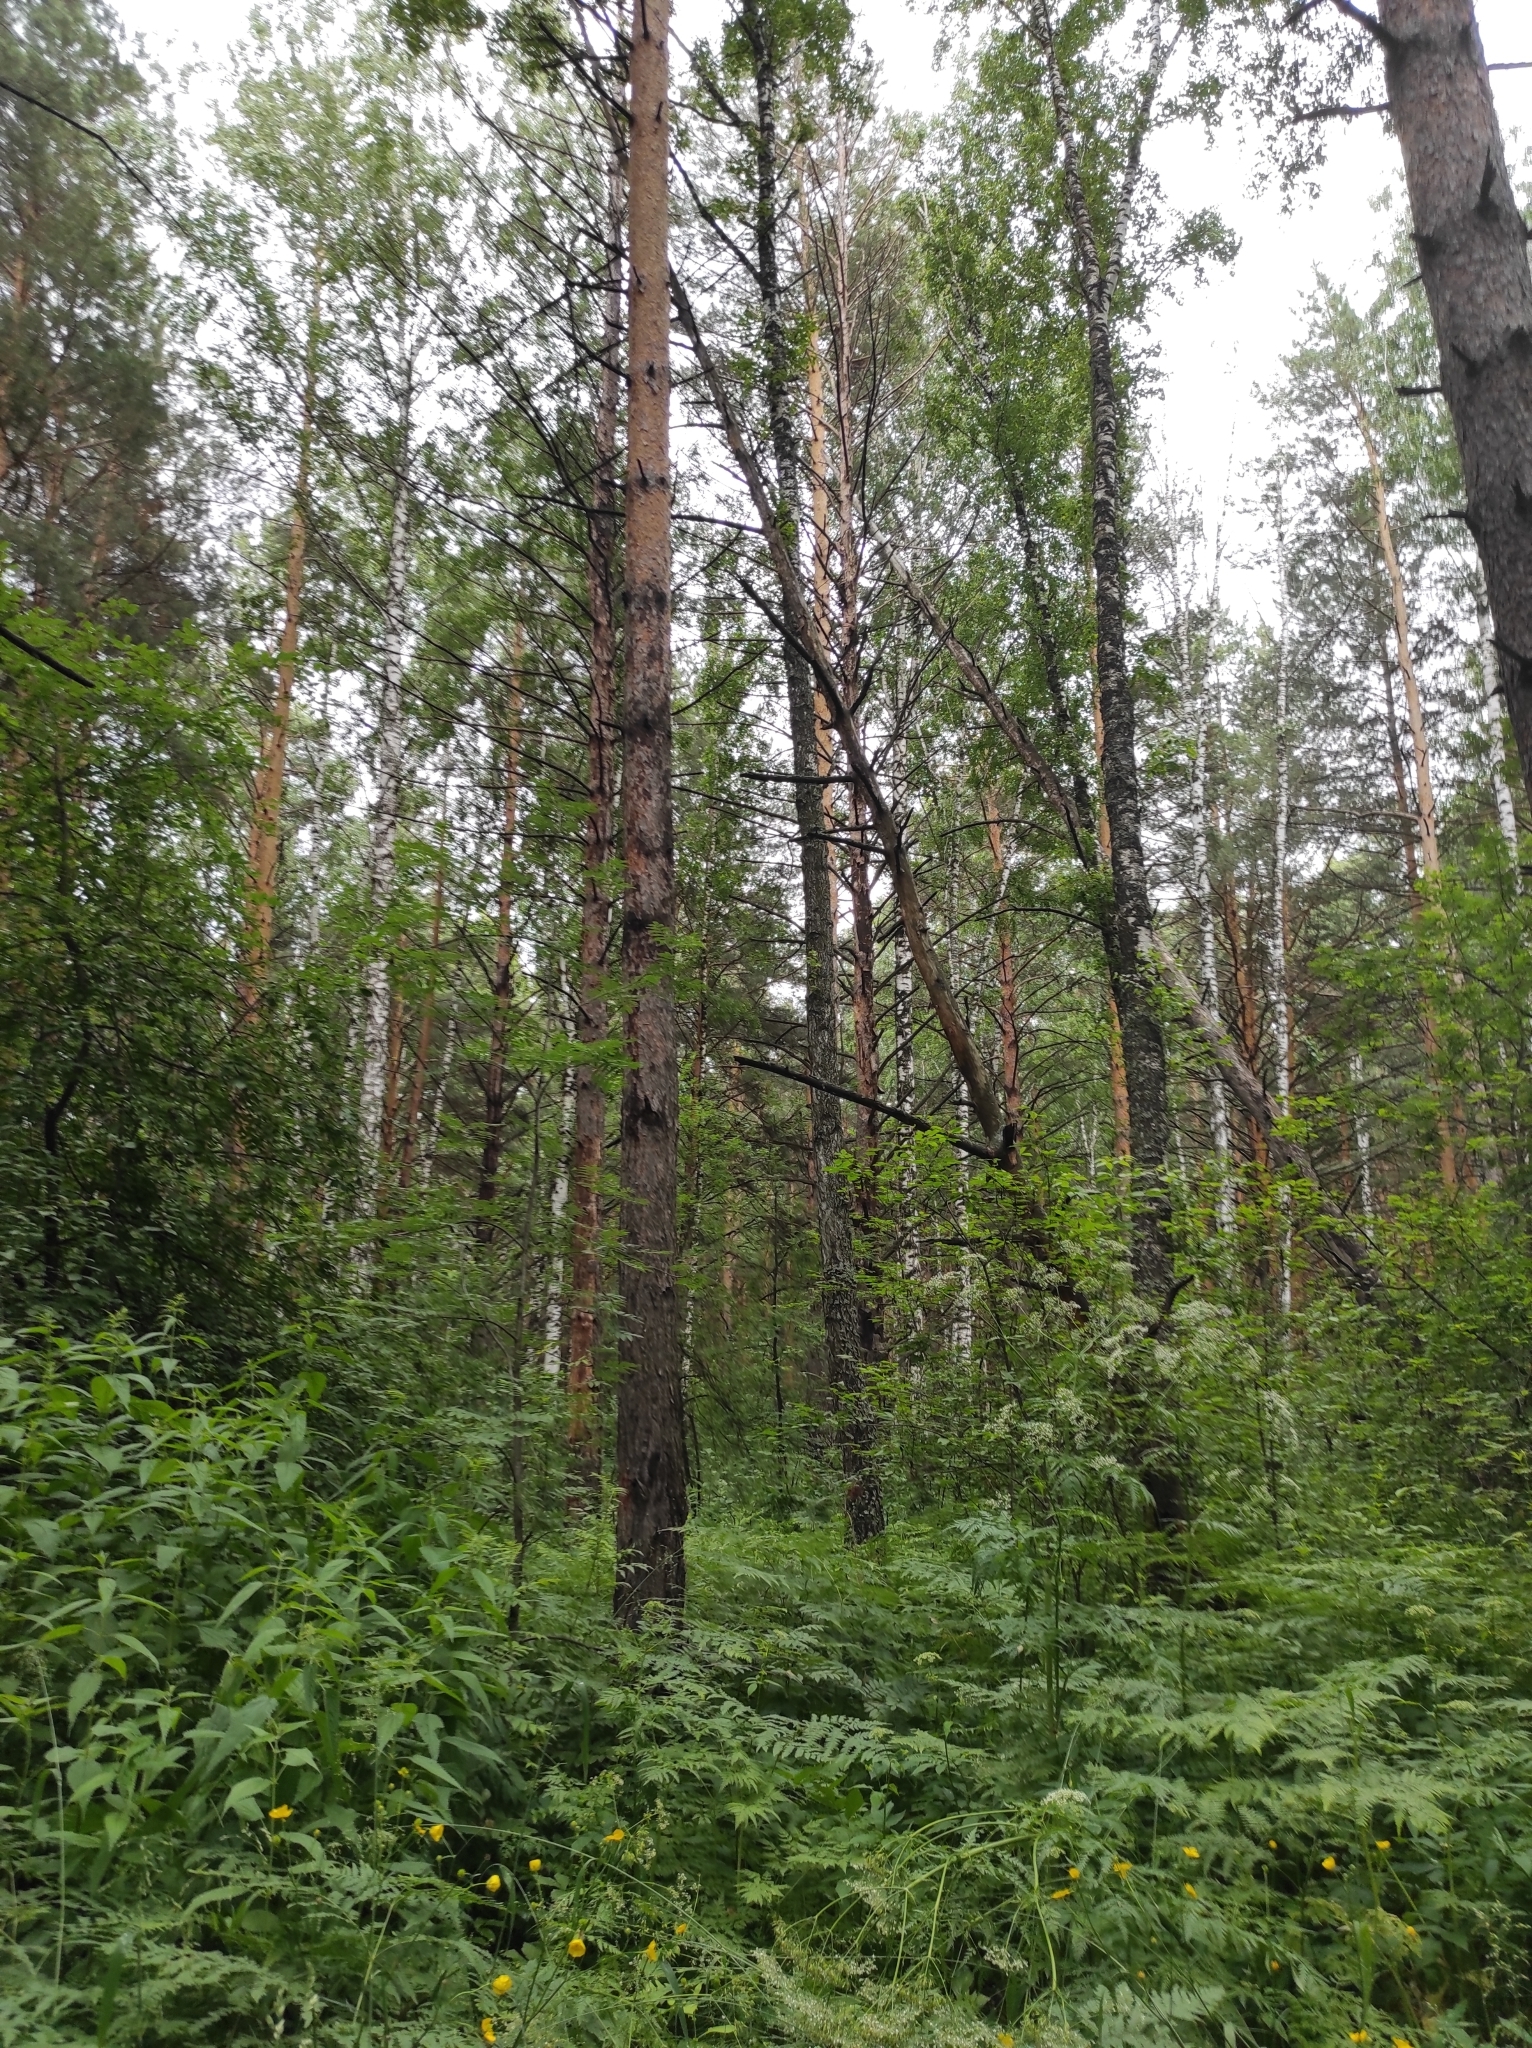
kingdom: Plantae
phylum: Tracheophyta
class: Pinopsida
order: Pinales
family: Pinaceae
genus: Pinus
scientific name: Pinus sylvestris
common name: Scots pine
